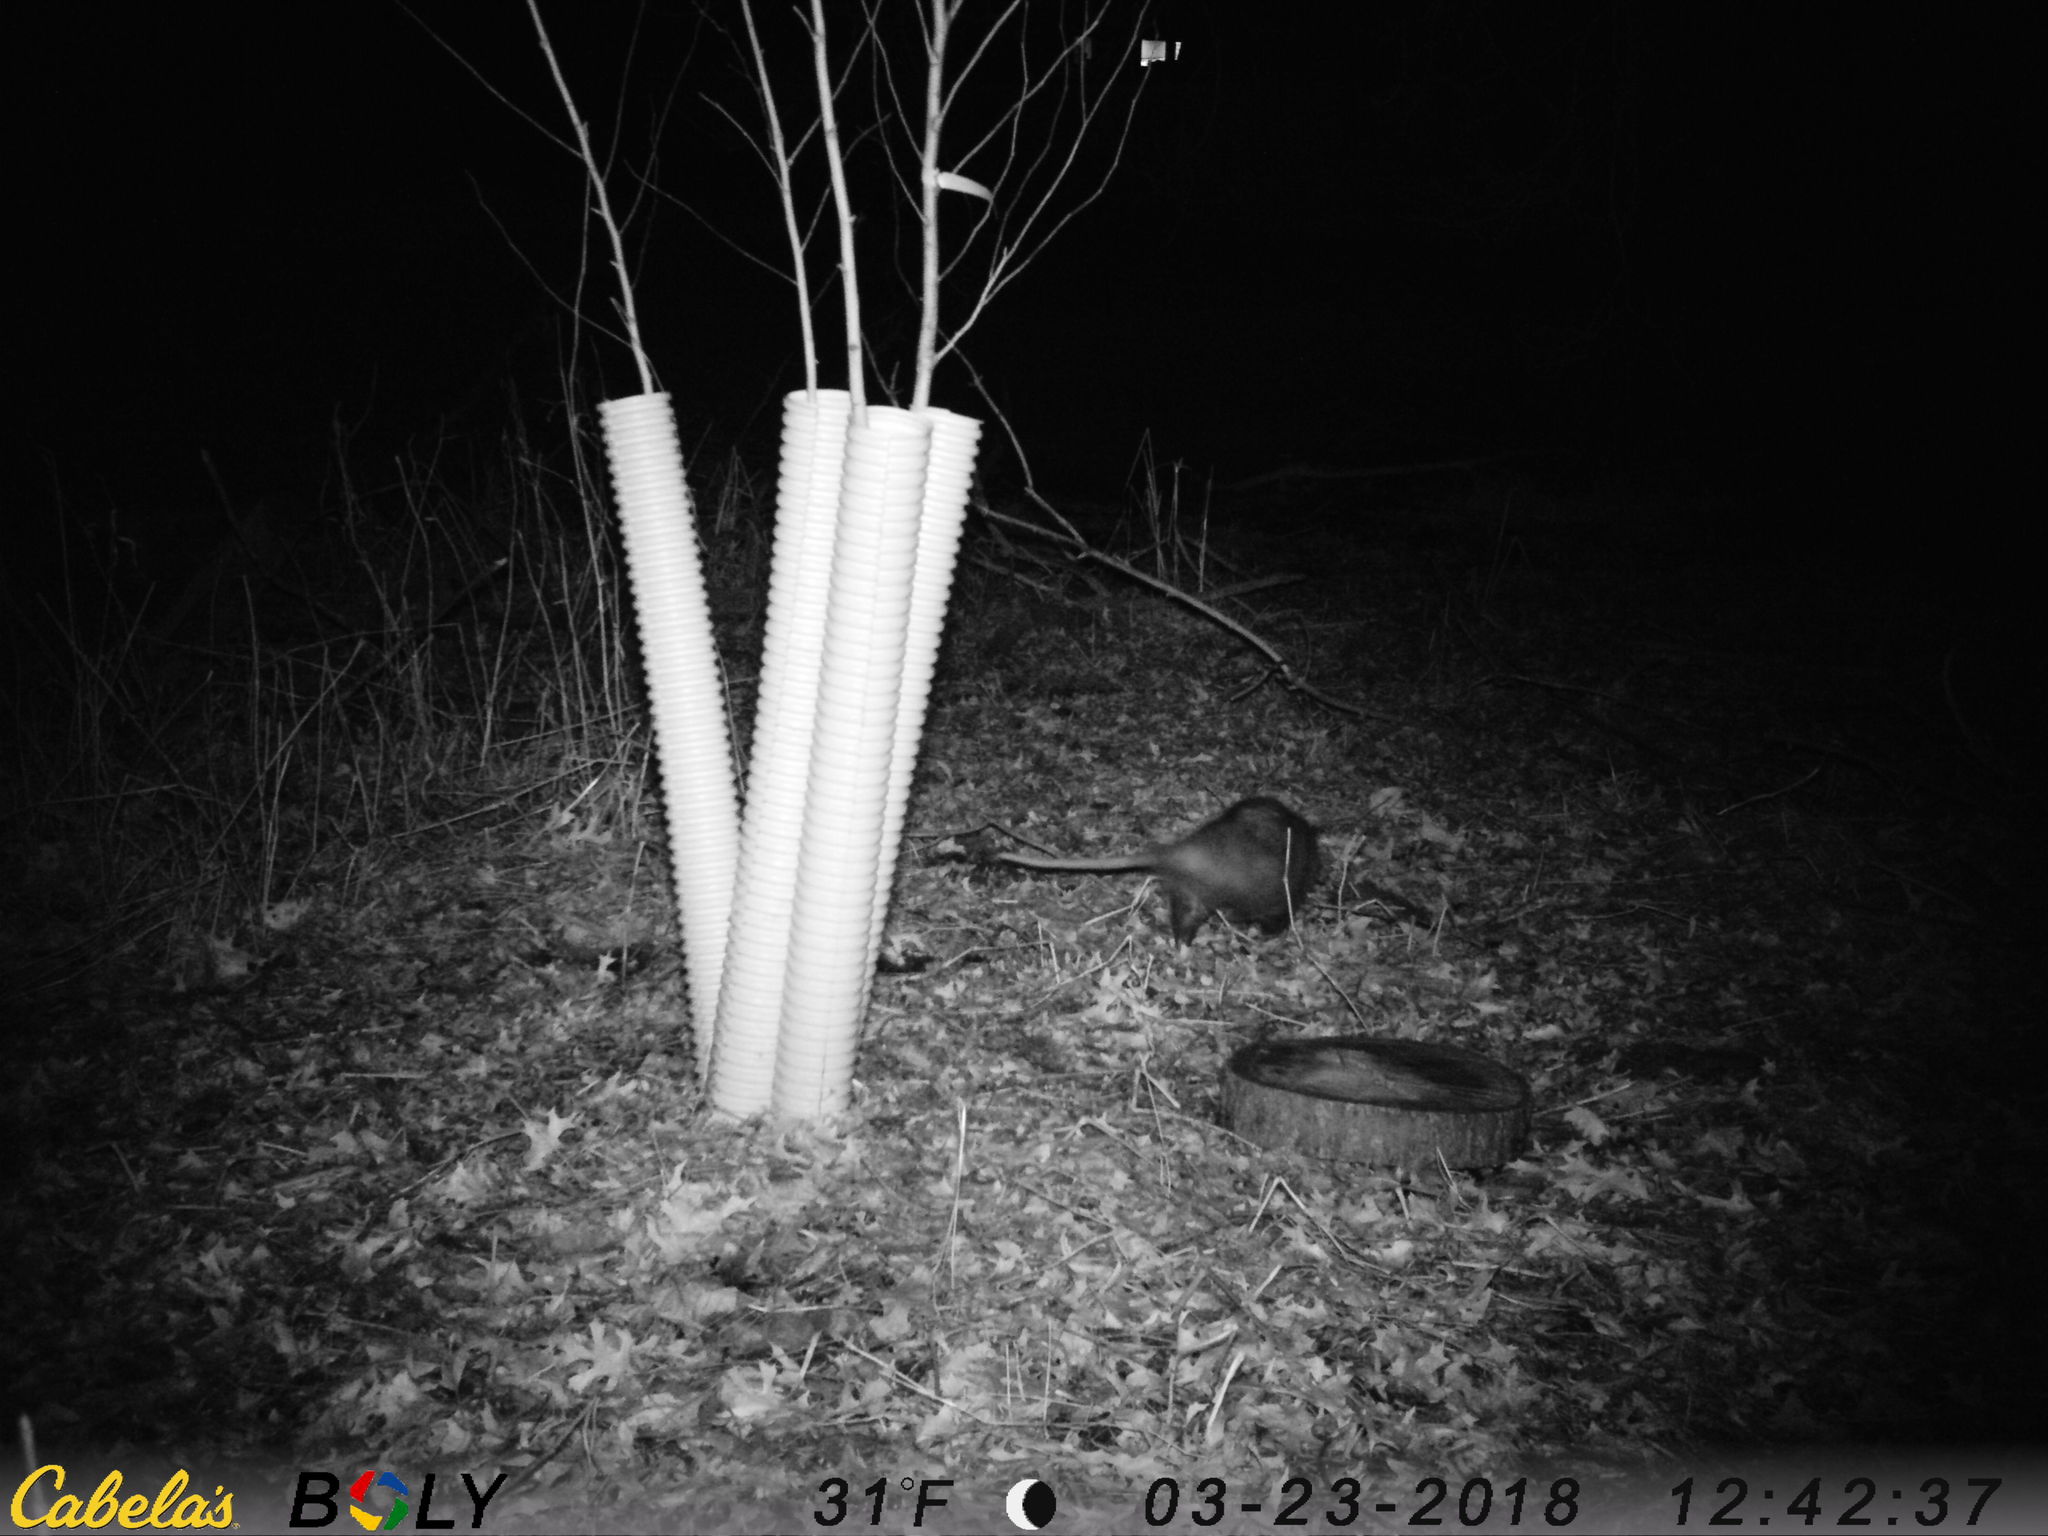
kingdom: Animalia
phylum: Chordata
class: Mammalia
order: Didelphimorphia
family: Didelphidae
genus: Didelphis
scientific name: Didelphis virginiana
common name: Virginia opossum
